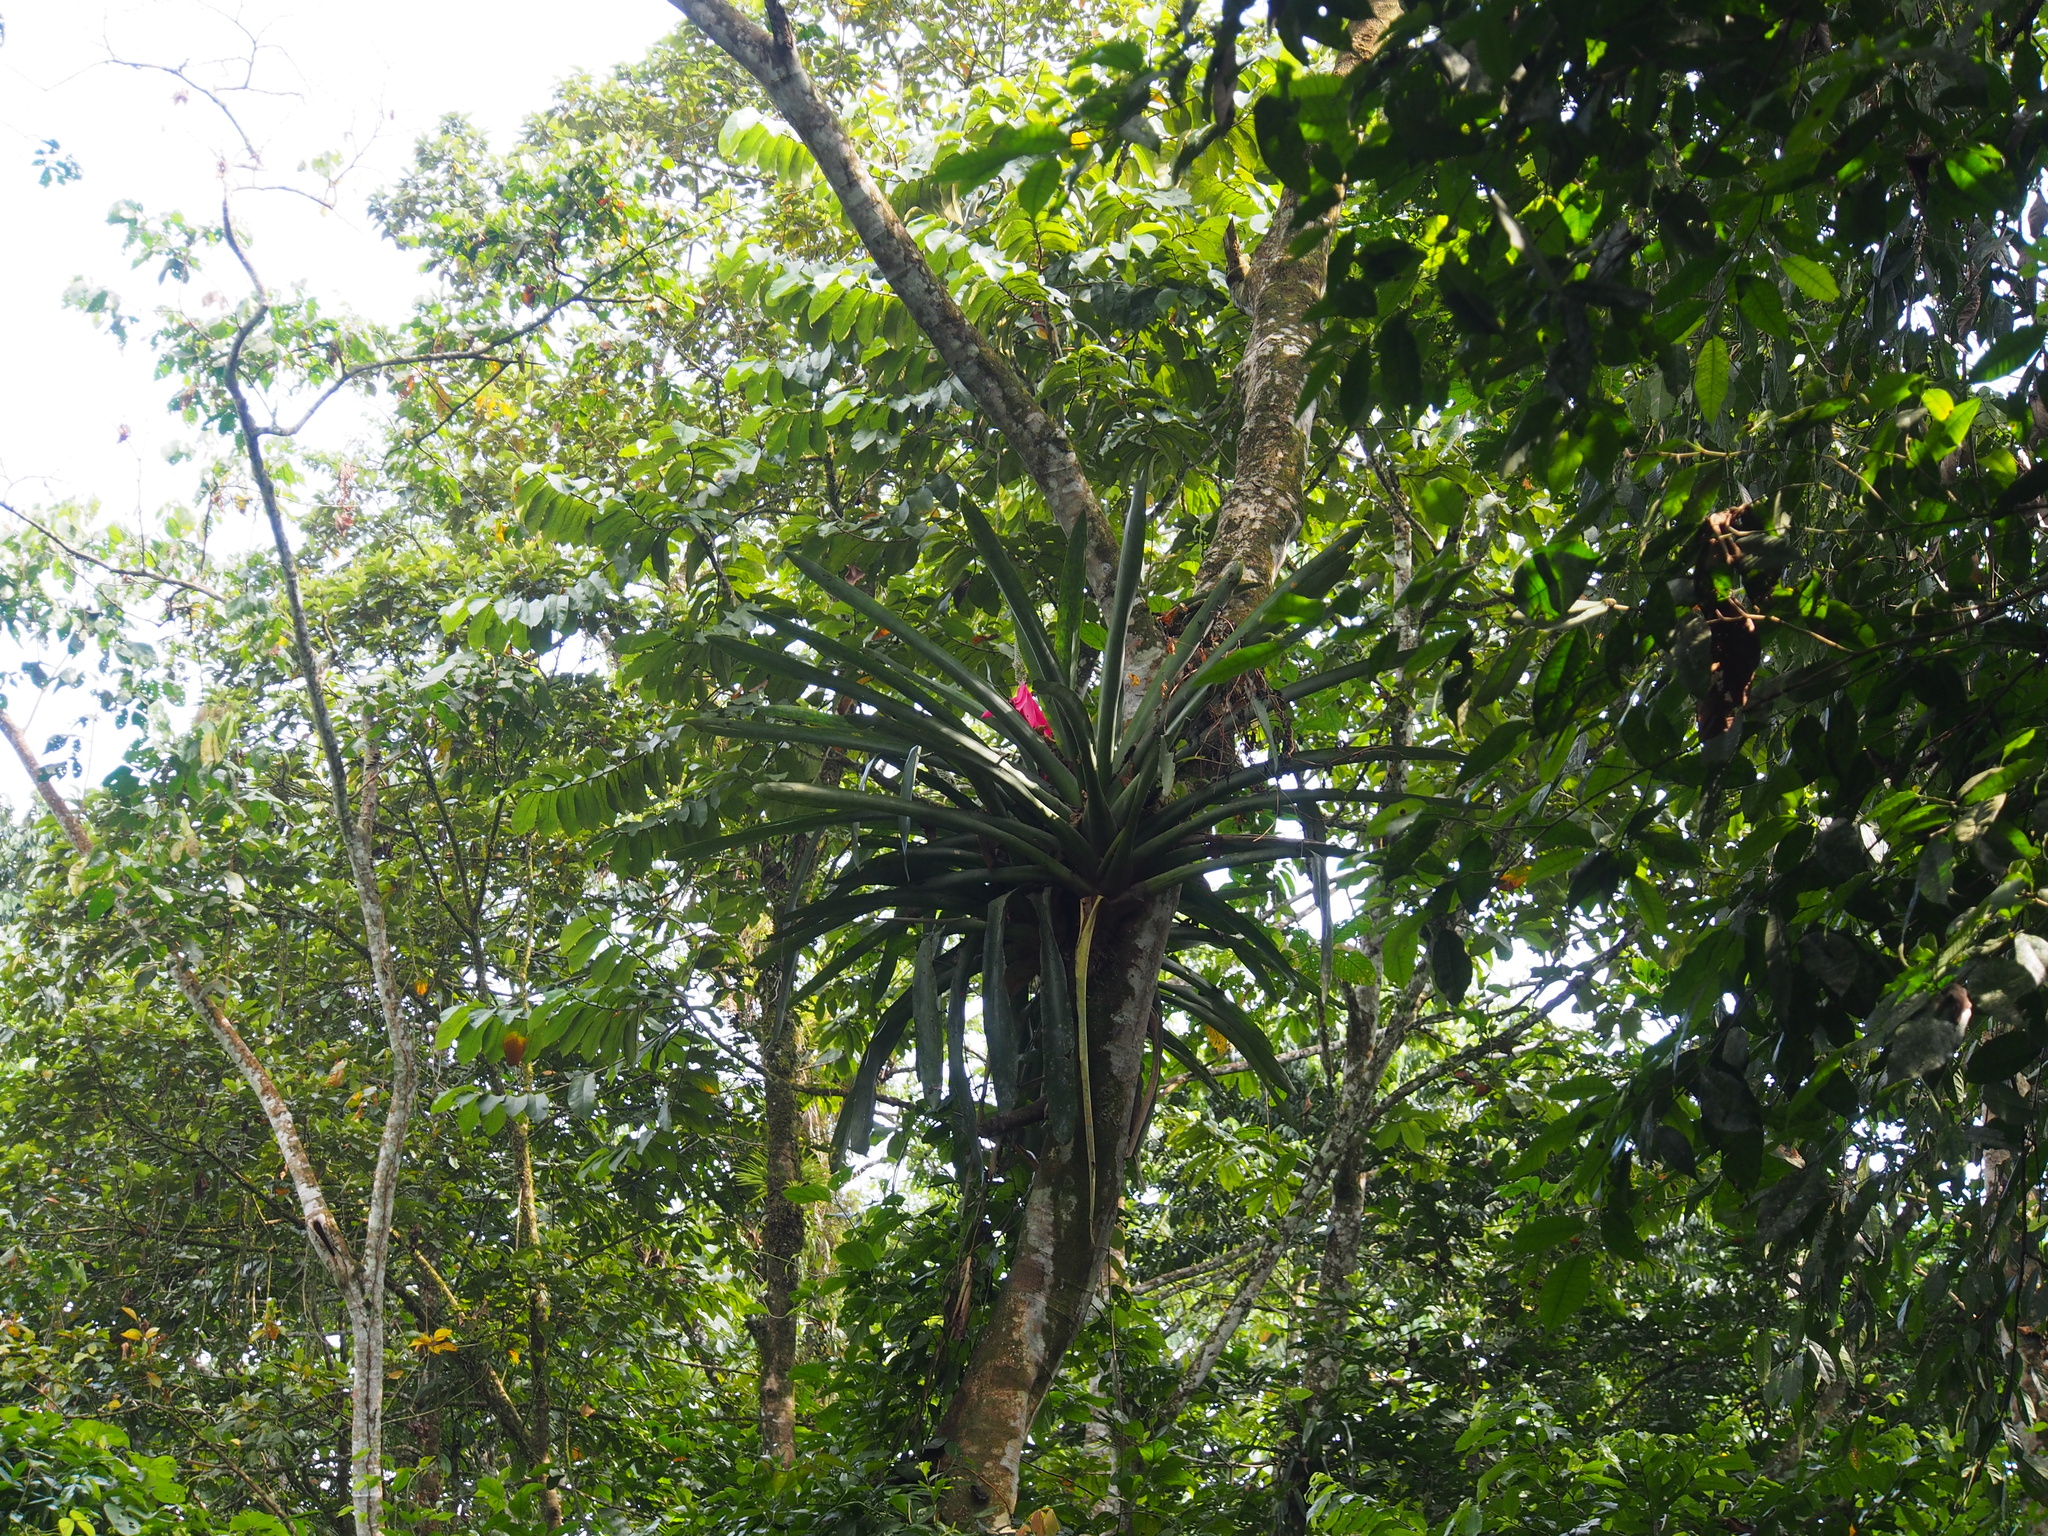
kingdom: Plantae
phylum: Tracheophyta
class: Liliopsida
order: Poales
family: Bromeliaceae
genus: Aechmea
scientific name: Aechmea mariae-reginae
